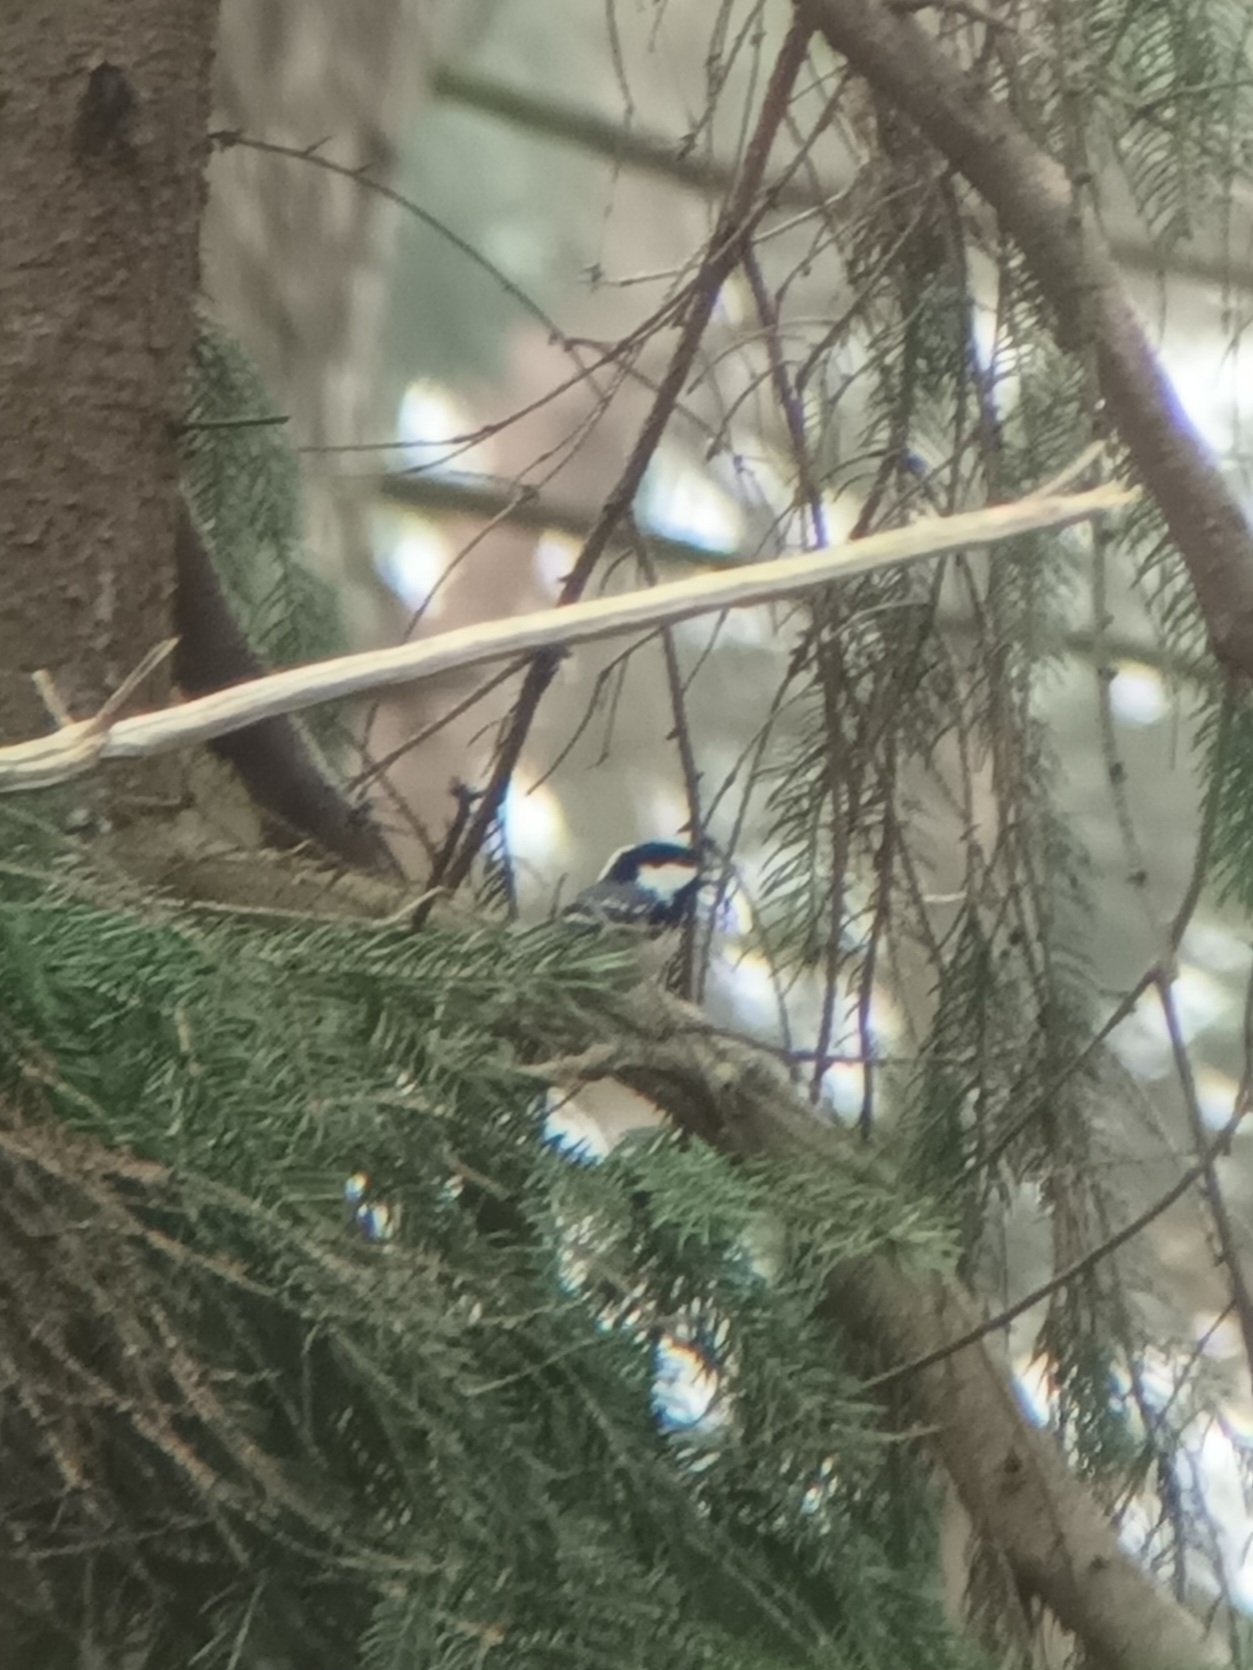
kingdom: Animalia
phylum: Chordata
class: Aves
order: Passeriformes
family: Paridae
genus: Periparus
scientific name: Periparus ater
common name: Coal tit
